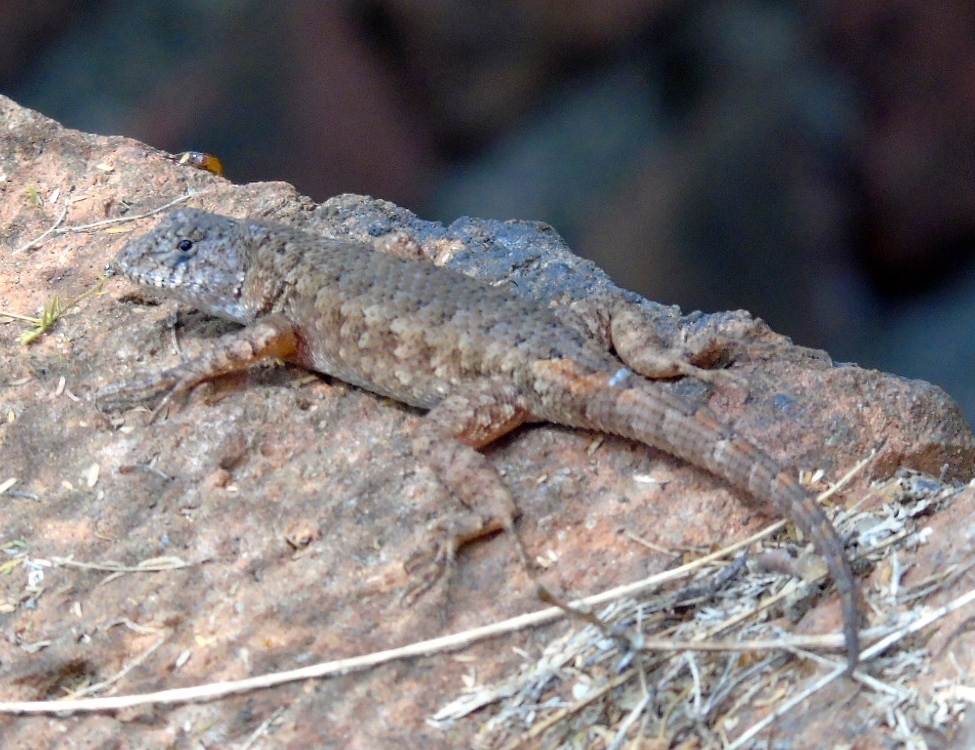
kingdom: Animalia
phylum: Chordata
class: Squamata
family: Phrynosomatidae
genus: Sceloporus
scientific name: Sceloporus nelsoni
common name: Nelson's spiny lizard
